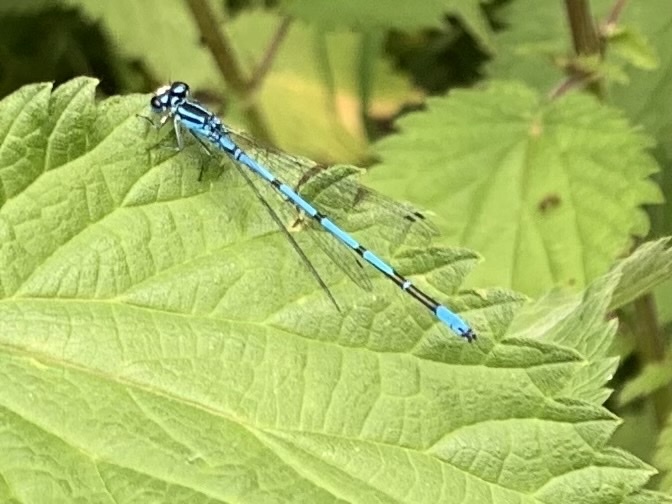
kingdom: Animalia
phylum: Arthropoda
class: Insecta
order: Odonata
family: Coenagrionidae
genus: Coenagrion
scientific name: Coenagrion puella
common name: Azure damselfly
